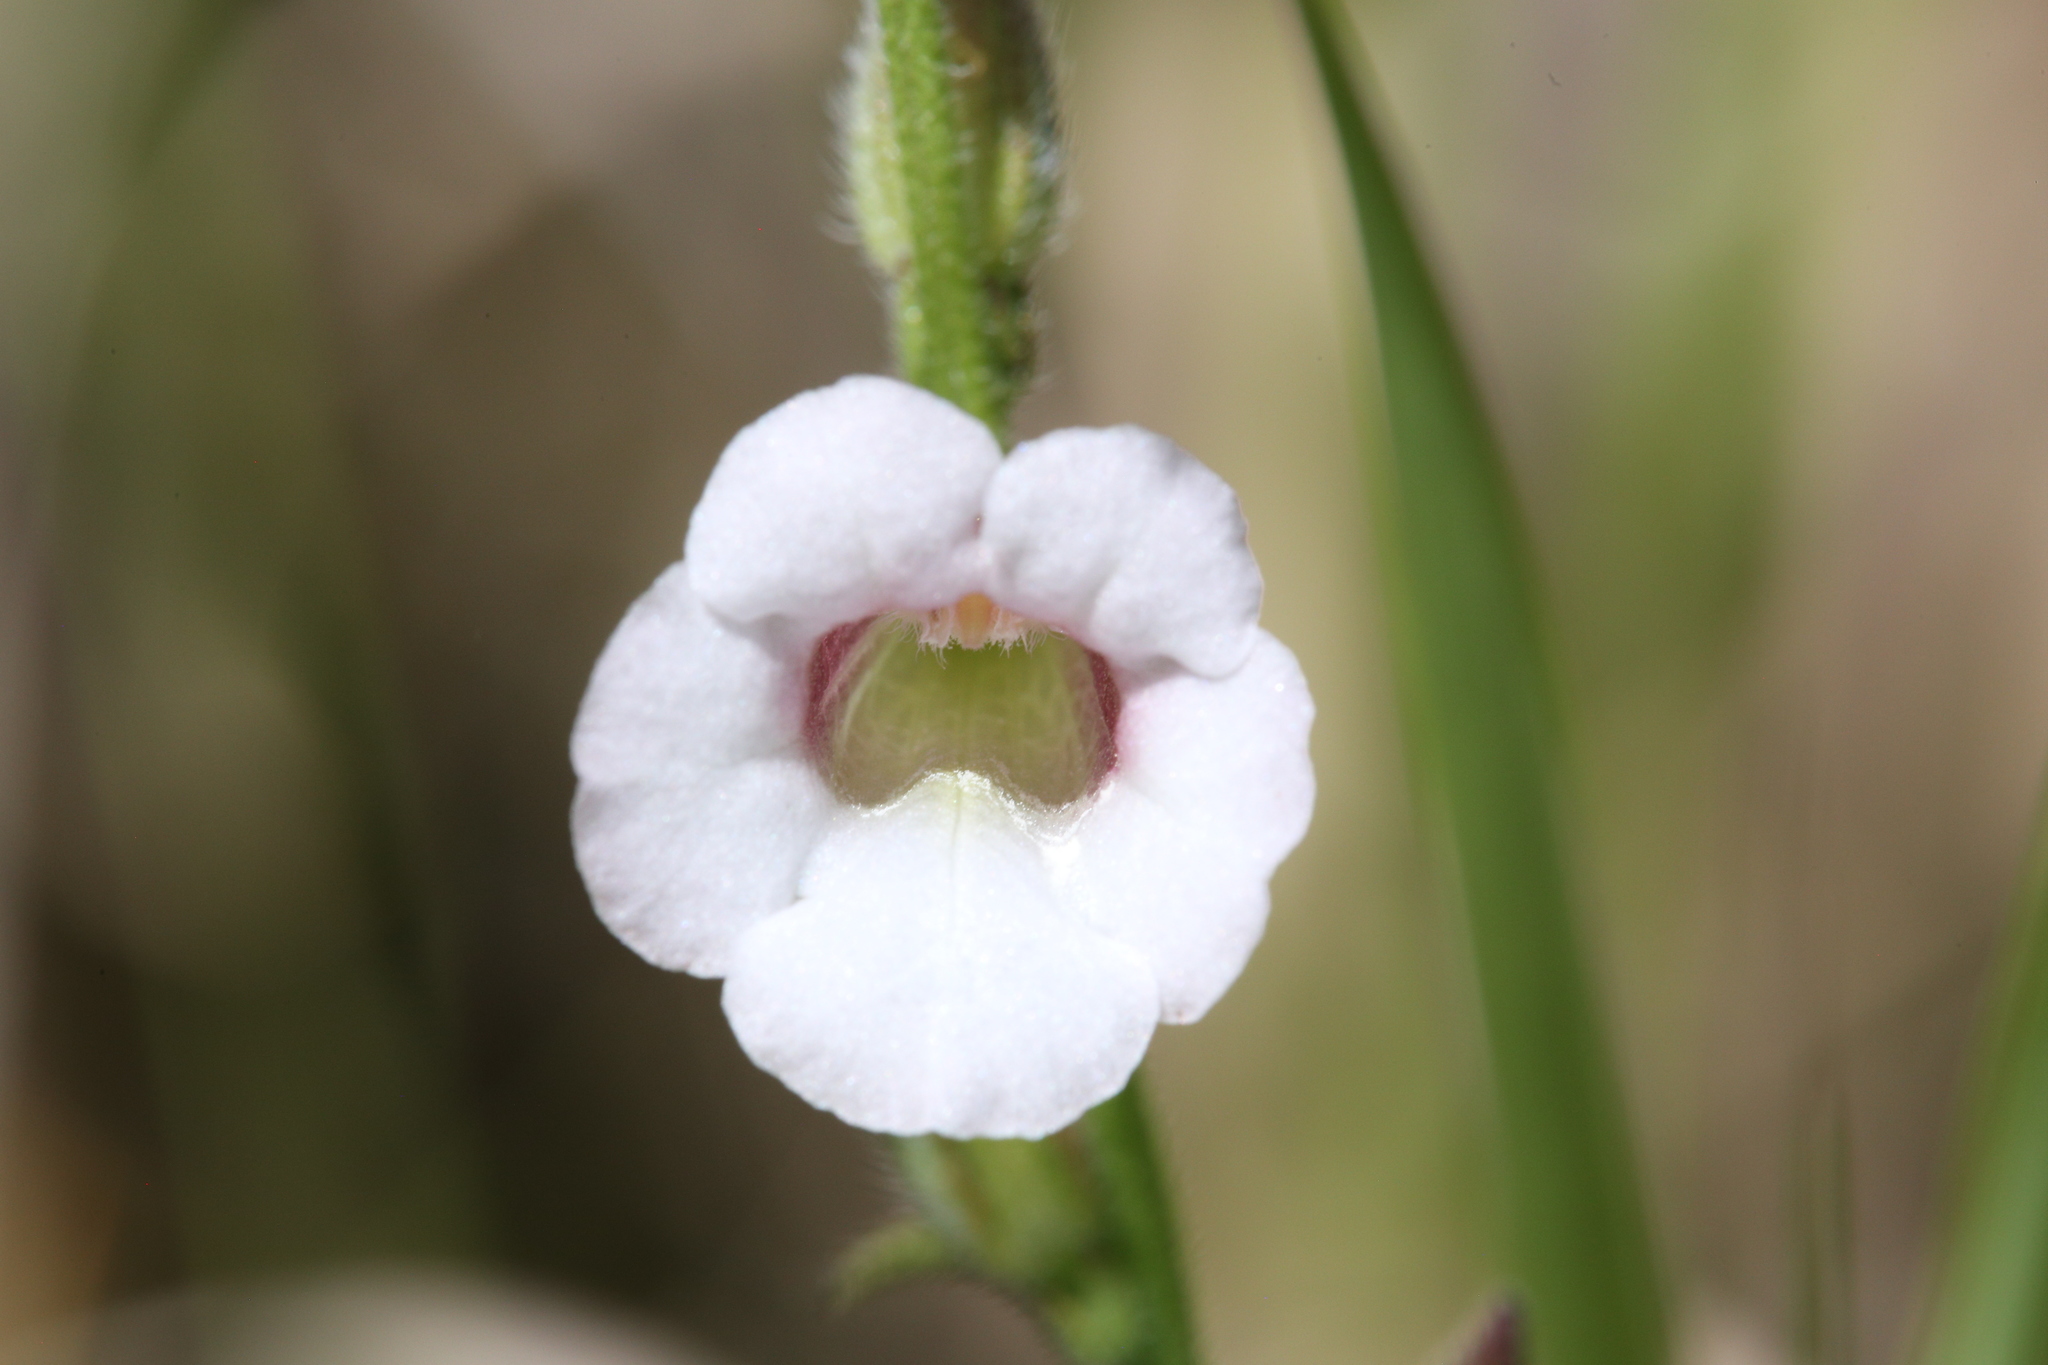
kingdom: Plantae
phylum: Tracheophyta
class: Magnoliopsida
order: Lamiales
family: Orobanchaceae
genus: Centranthera
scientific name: Centranthera cochinchinensis
